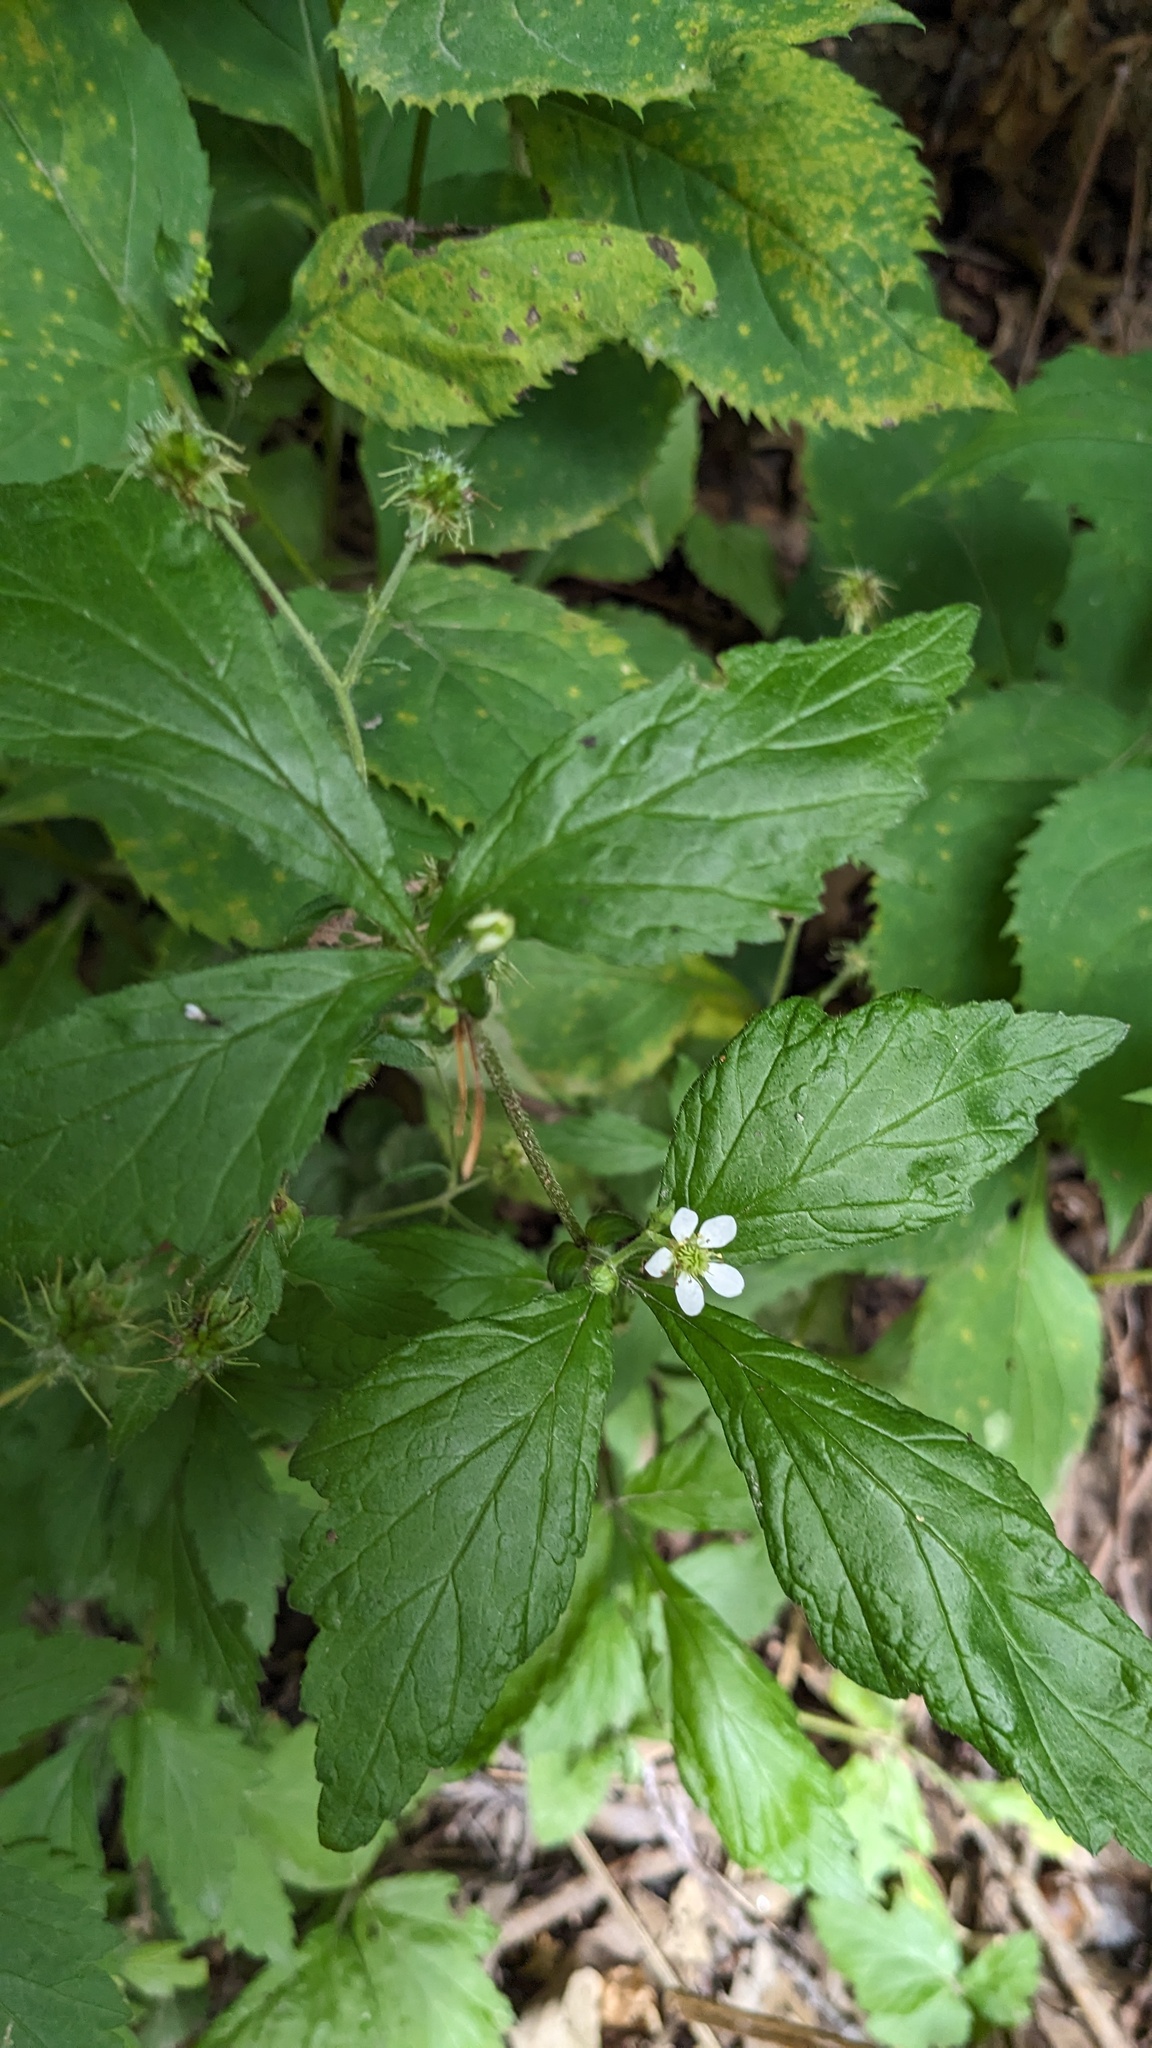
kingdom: Plantae
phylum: Tracheophyta
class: Magnoliopsida
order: Rosales
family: Rosaceae
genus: Geum
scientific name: Geum canadense
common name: White avens
